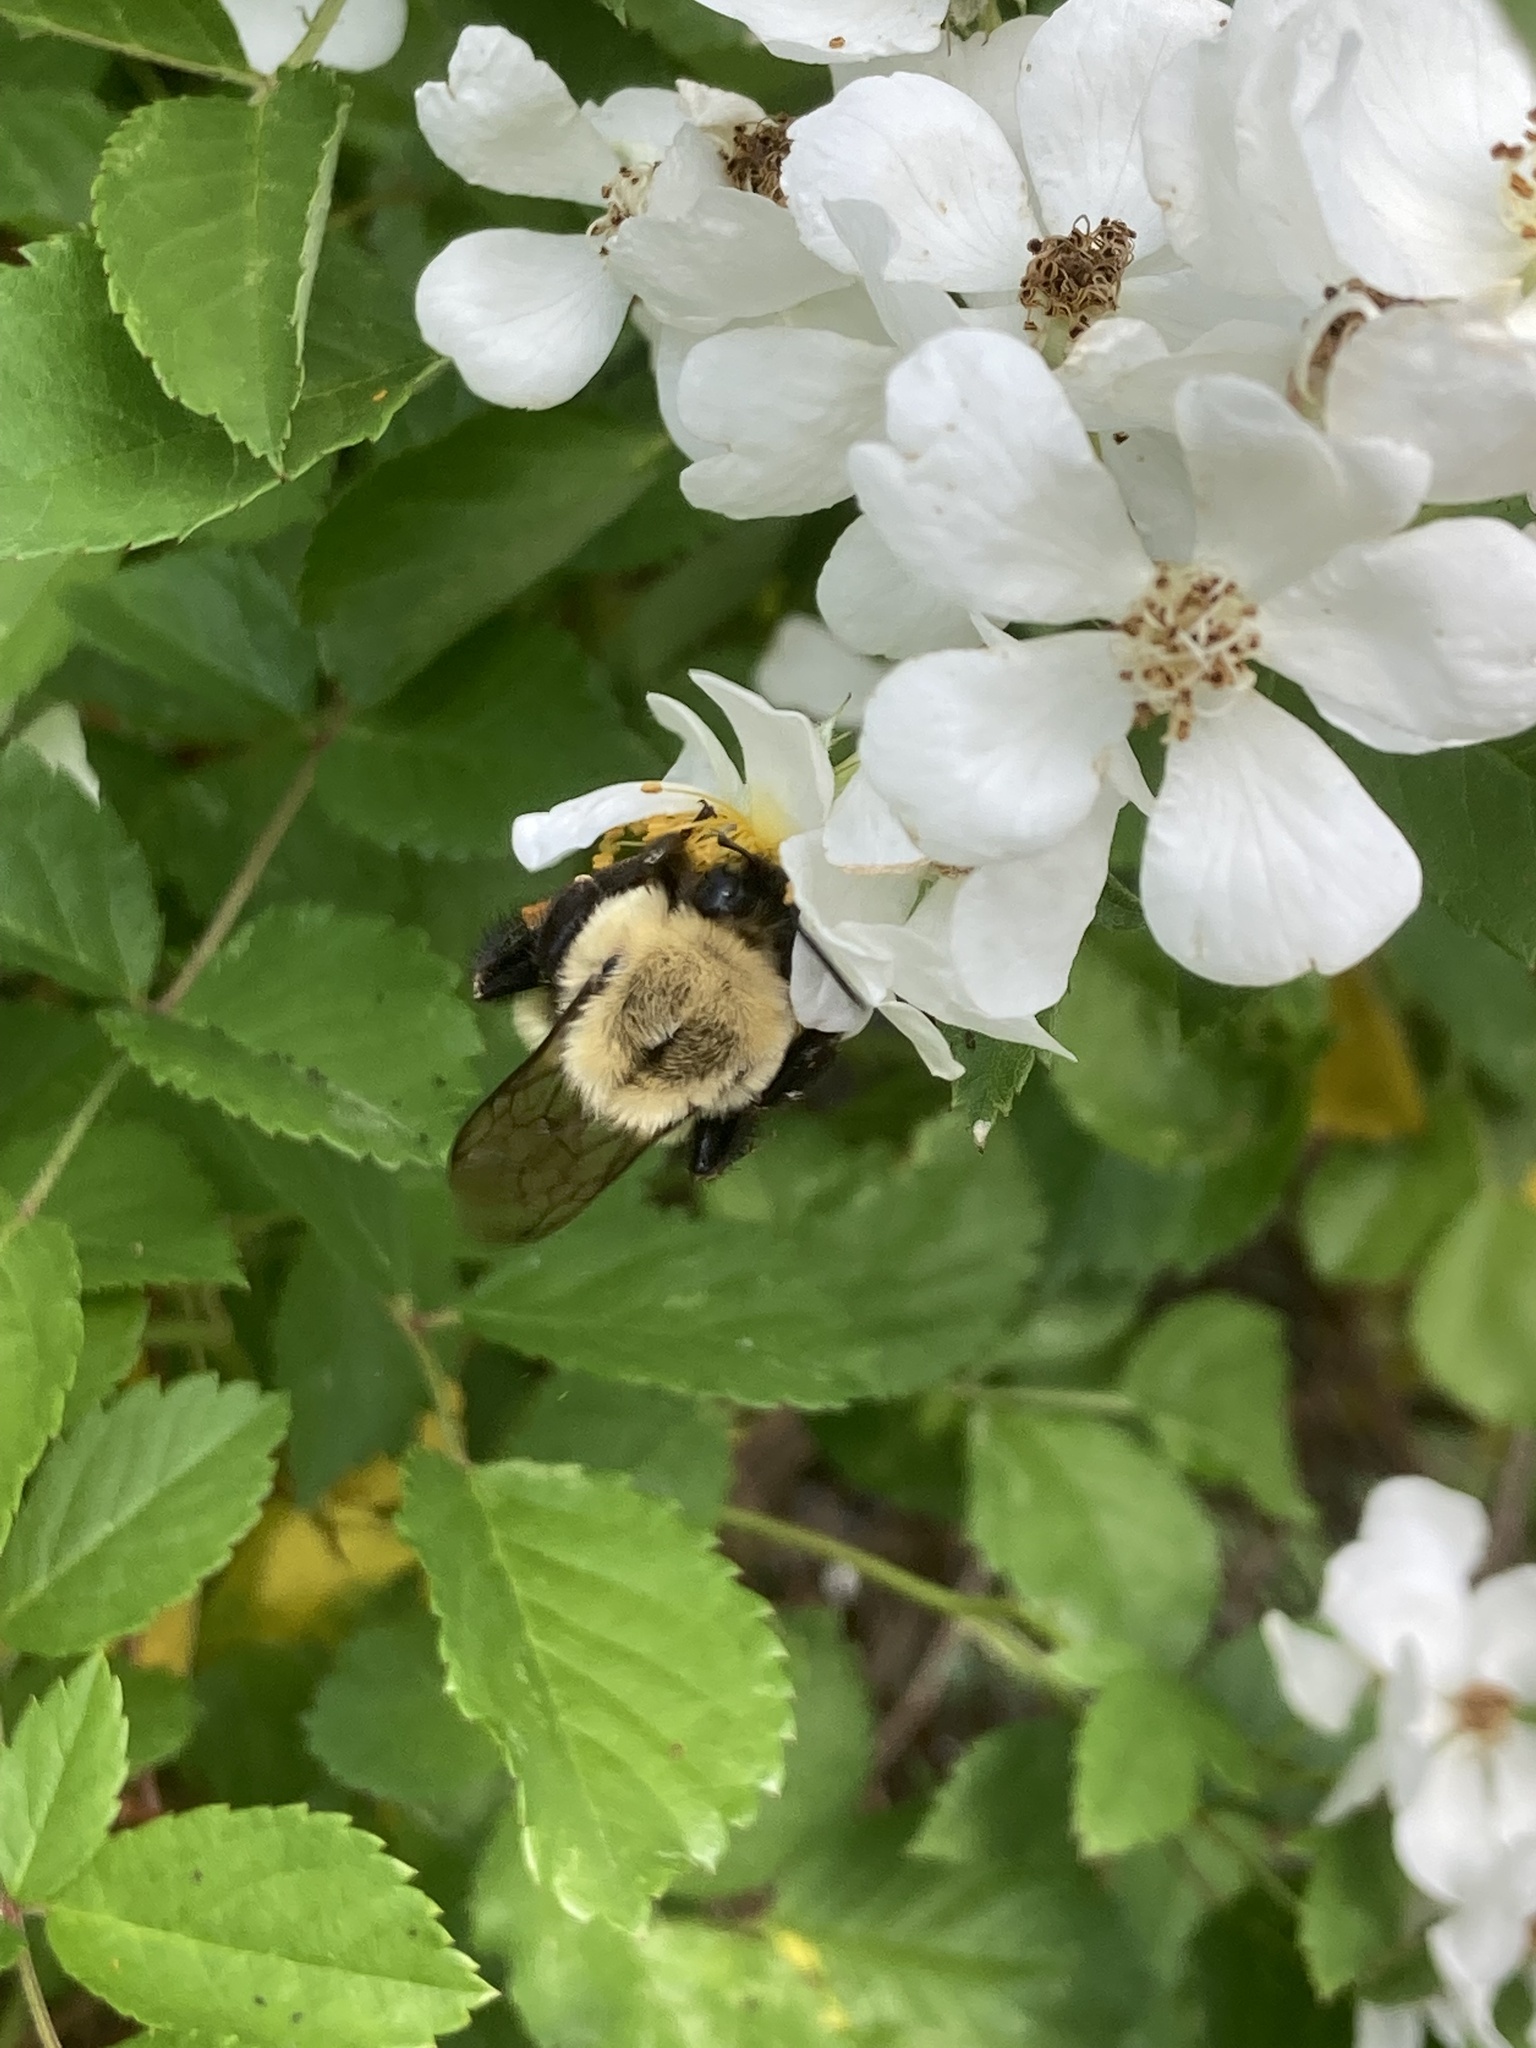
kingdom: Animalia
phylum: Arthropoda
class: Insecta
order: Hymenoptera
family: Apidae
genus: Bombus
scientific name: Bombus impatiens
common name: Common eastern bumble bee
